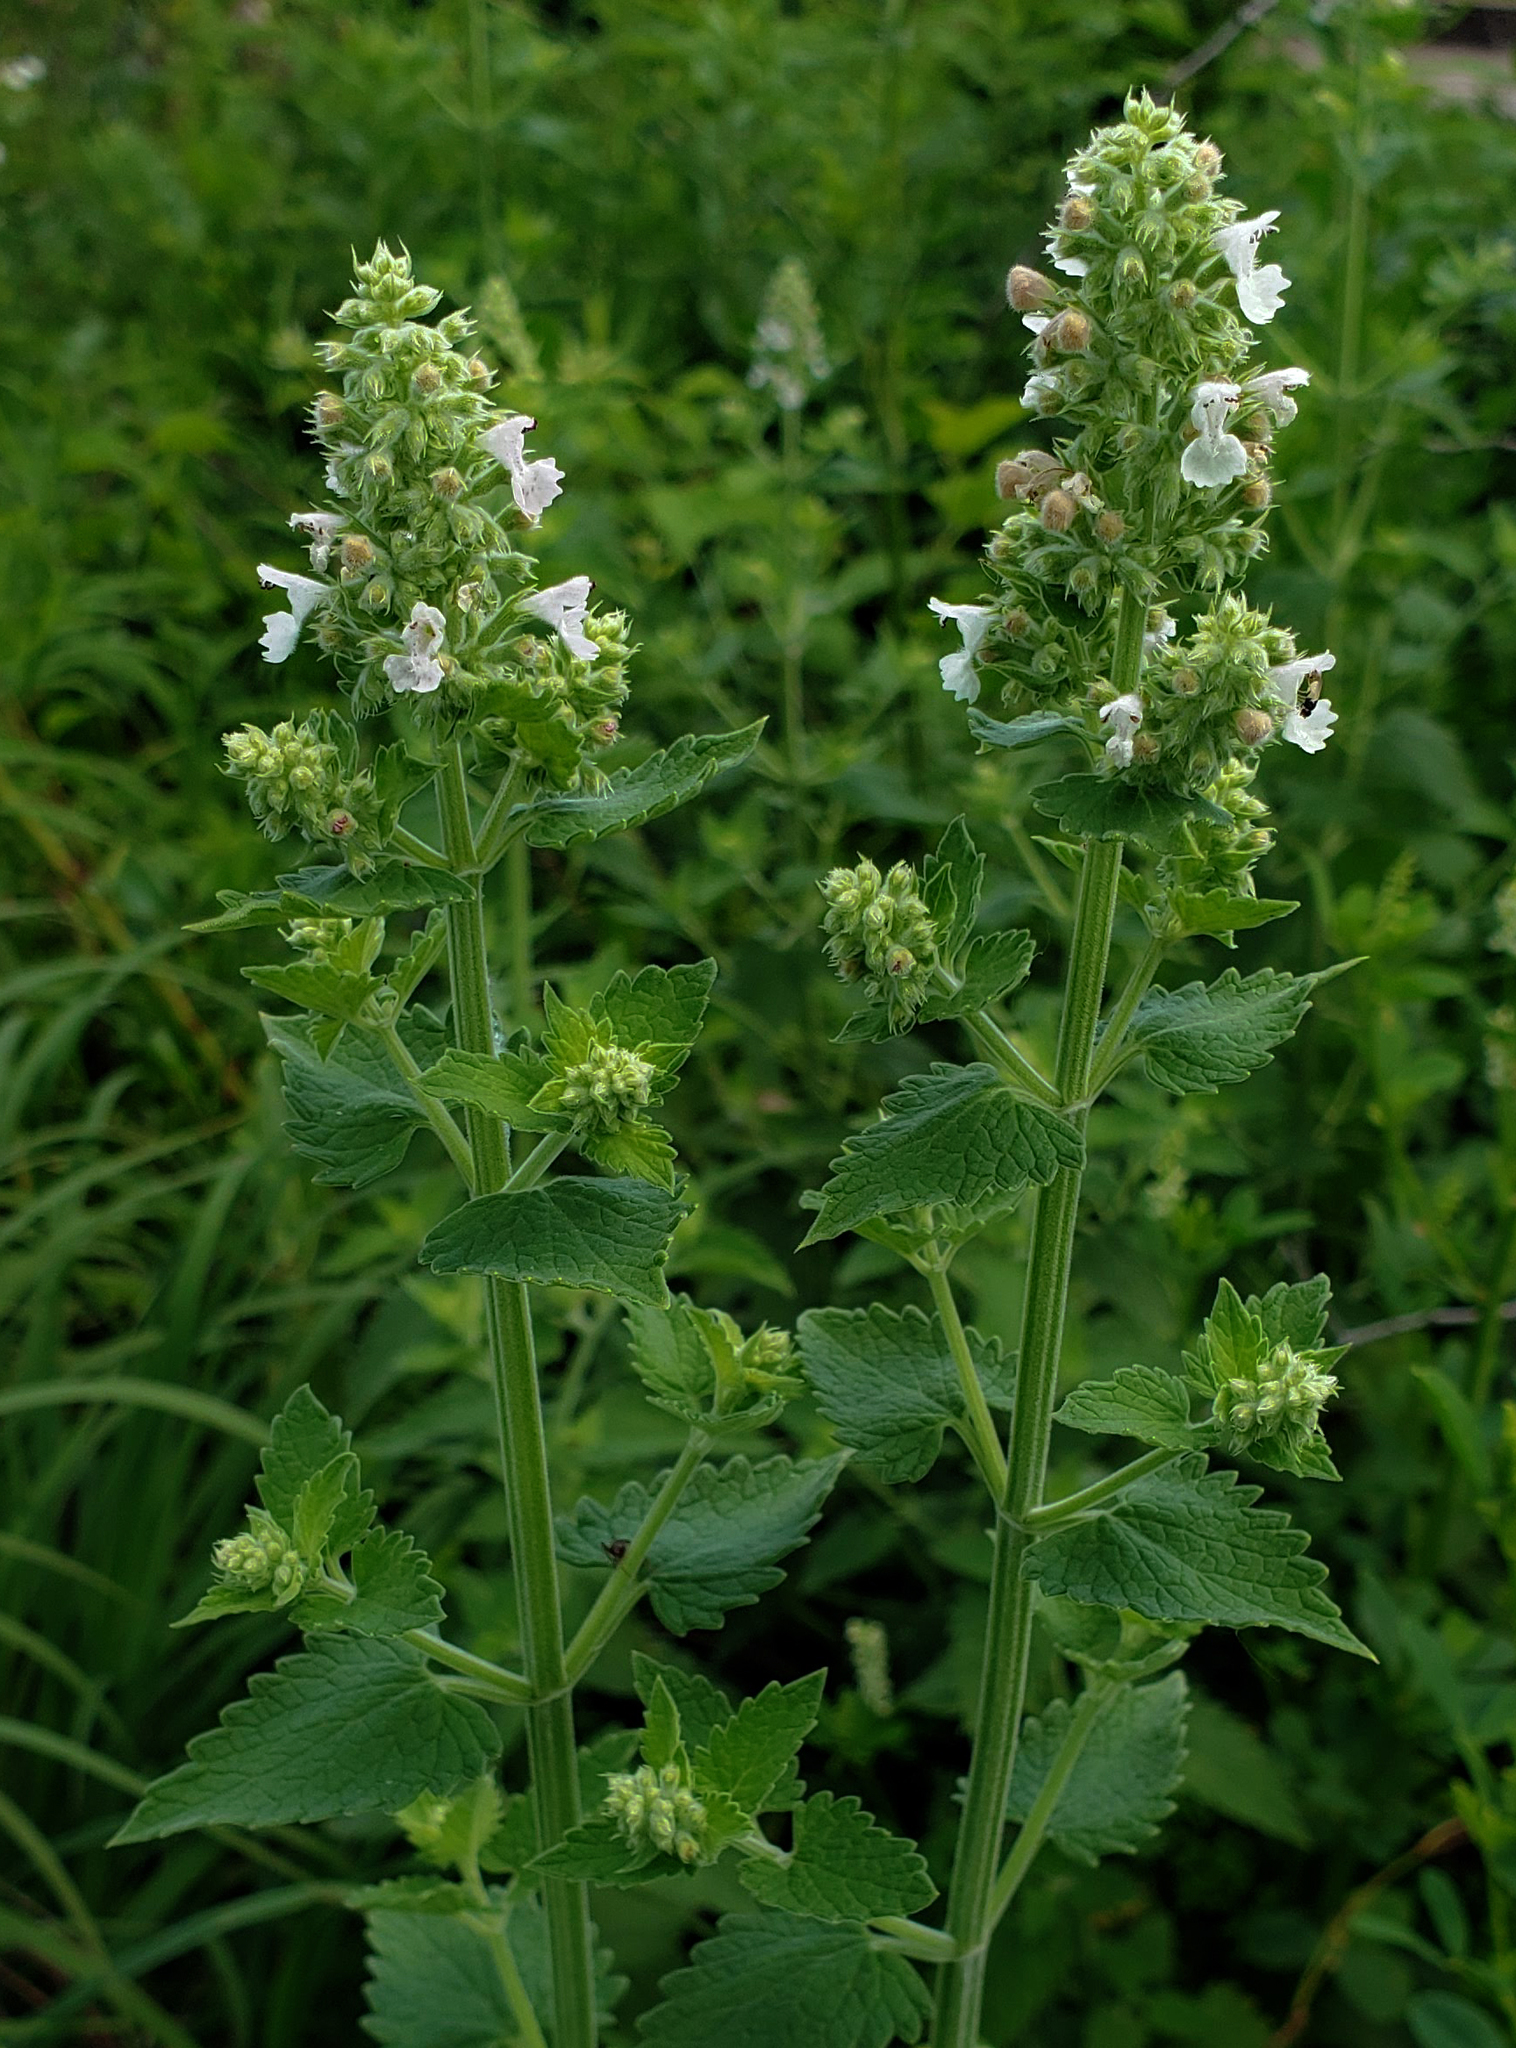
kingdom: Plantae
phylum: Tracheophyta
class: Magnoliopsida
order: Lamiales
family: Lamiaceae
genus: Nepeta
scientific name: Nepeta cataria
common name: Catnip
